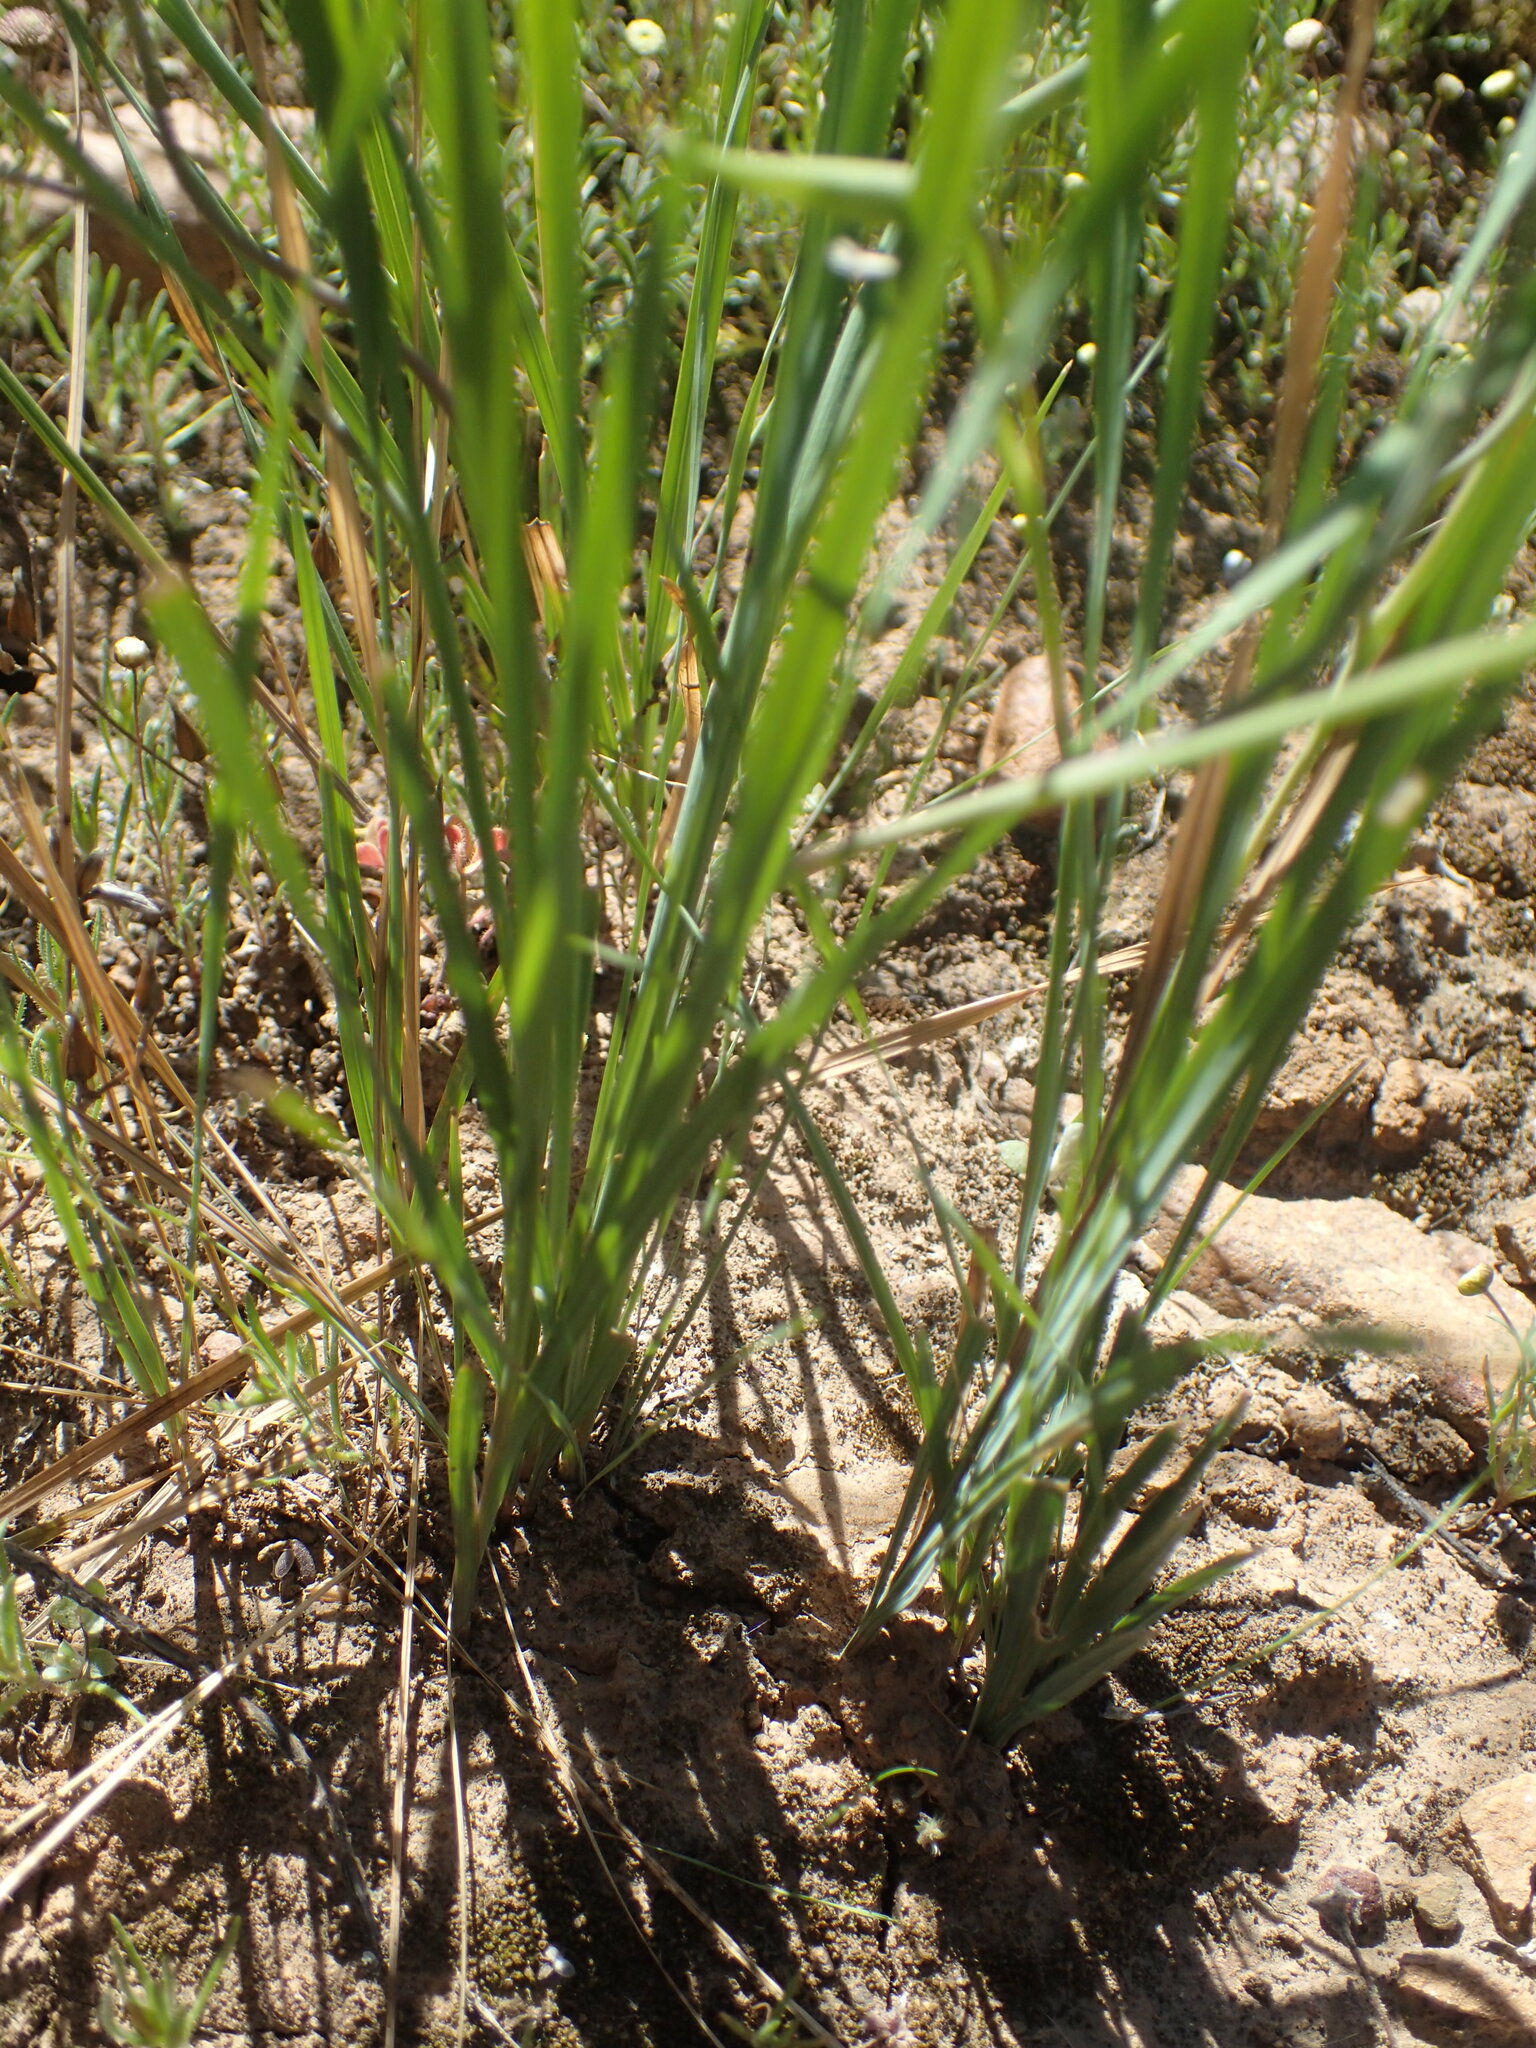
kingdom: Plantae
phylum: Tracheophyta
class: Liliopsida
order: Asparagales
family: Iridaceae
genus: Gladiolus
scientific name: Gladiolus venustus
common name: Purple kalkoentjie
